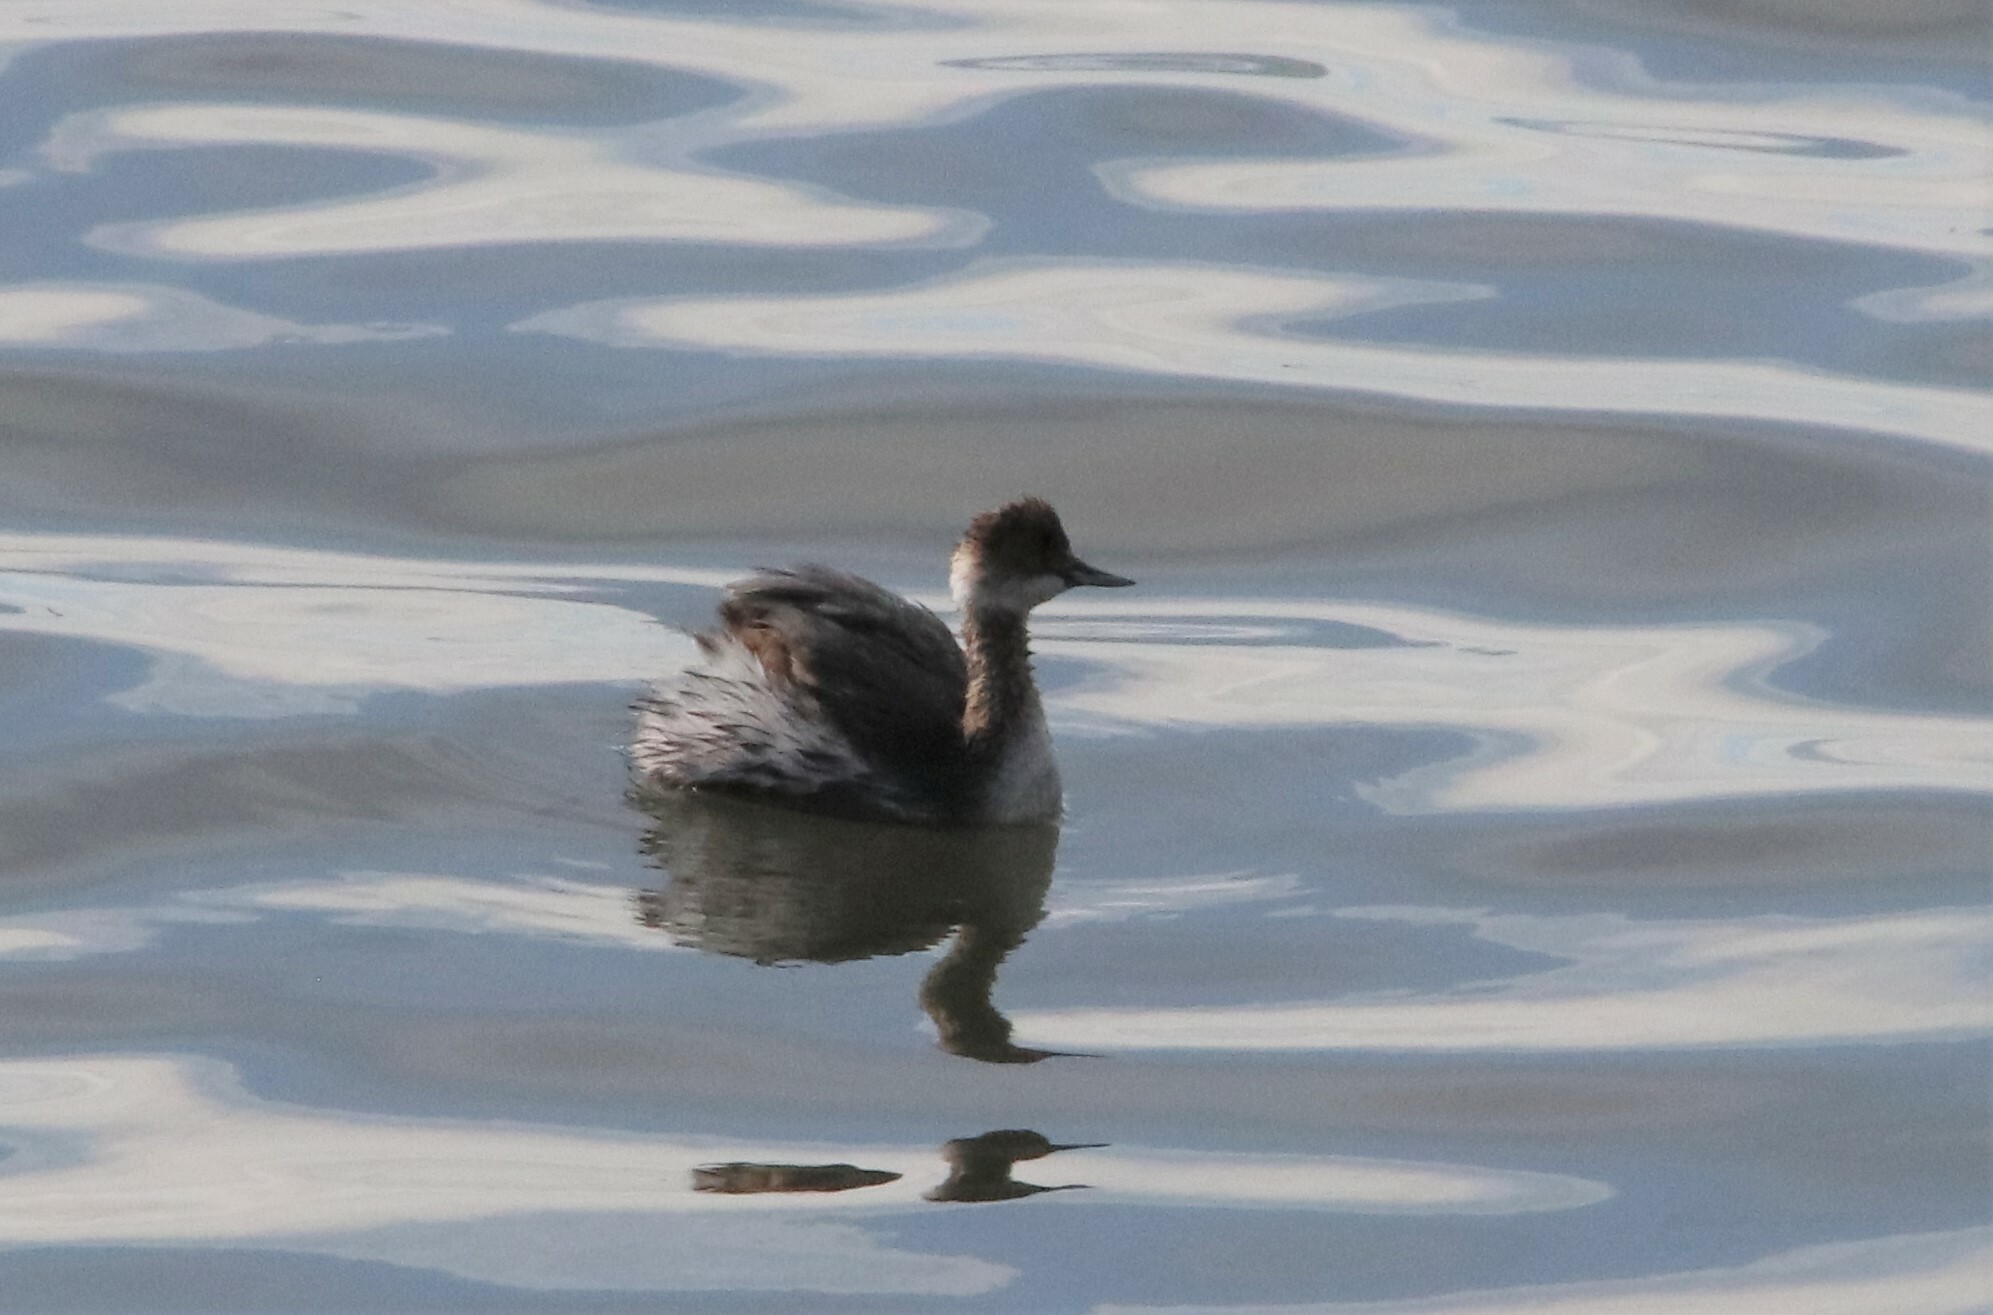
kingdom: Animalia
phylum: Chordata
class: Aves
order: Podicipediformes
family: Podicipedidae
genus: Podiceps
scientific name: Podiceps nigricollis
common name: Black-necked grebe
